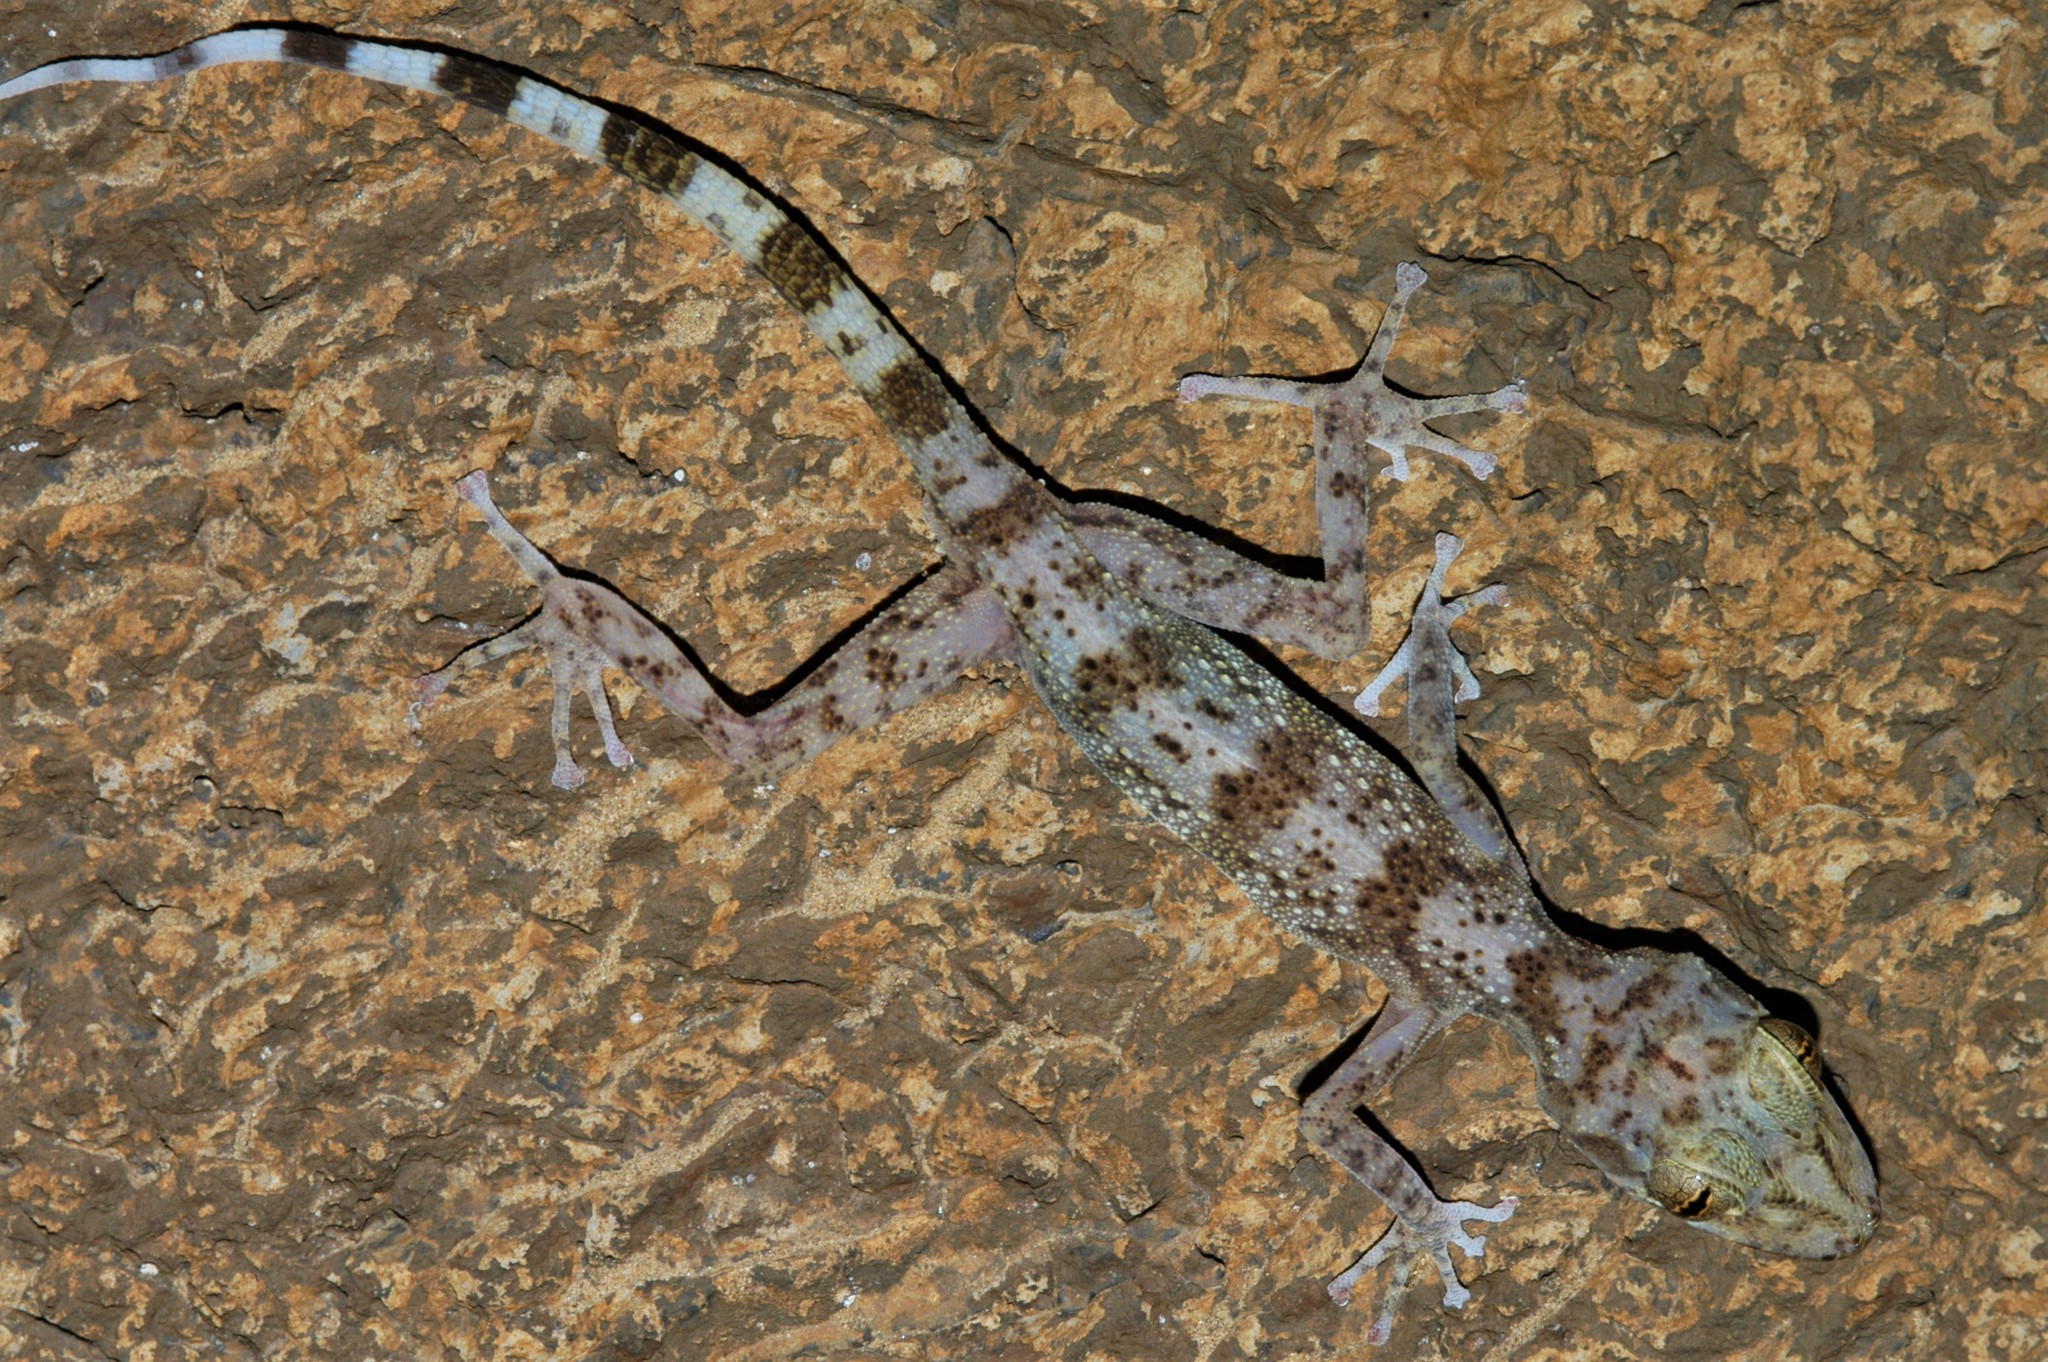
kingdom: Animalia
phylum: Chordata
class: Squamata
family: Gekkonidae
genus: Paroedura
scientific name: Paroedura homalorhina
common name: Northern madagascar ground gecko
